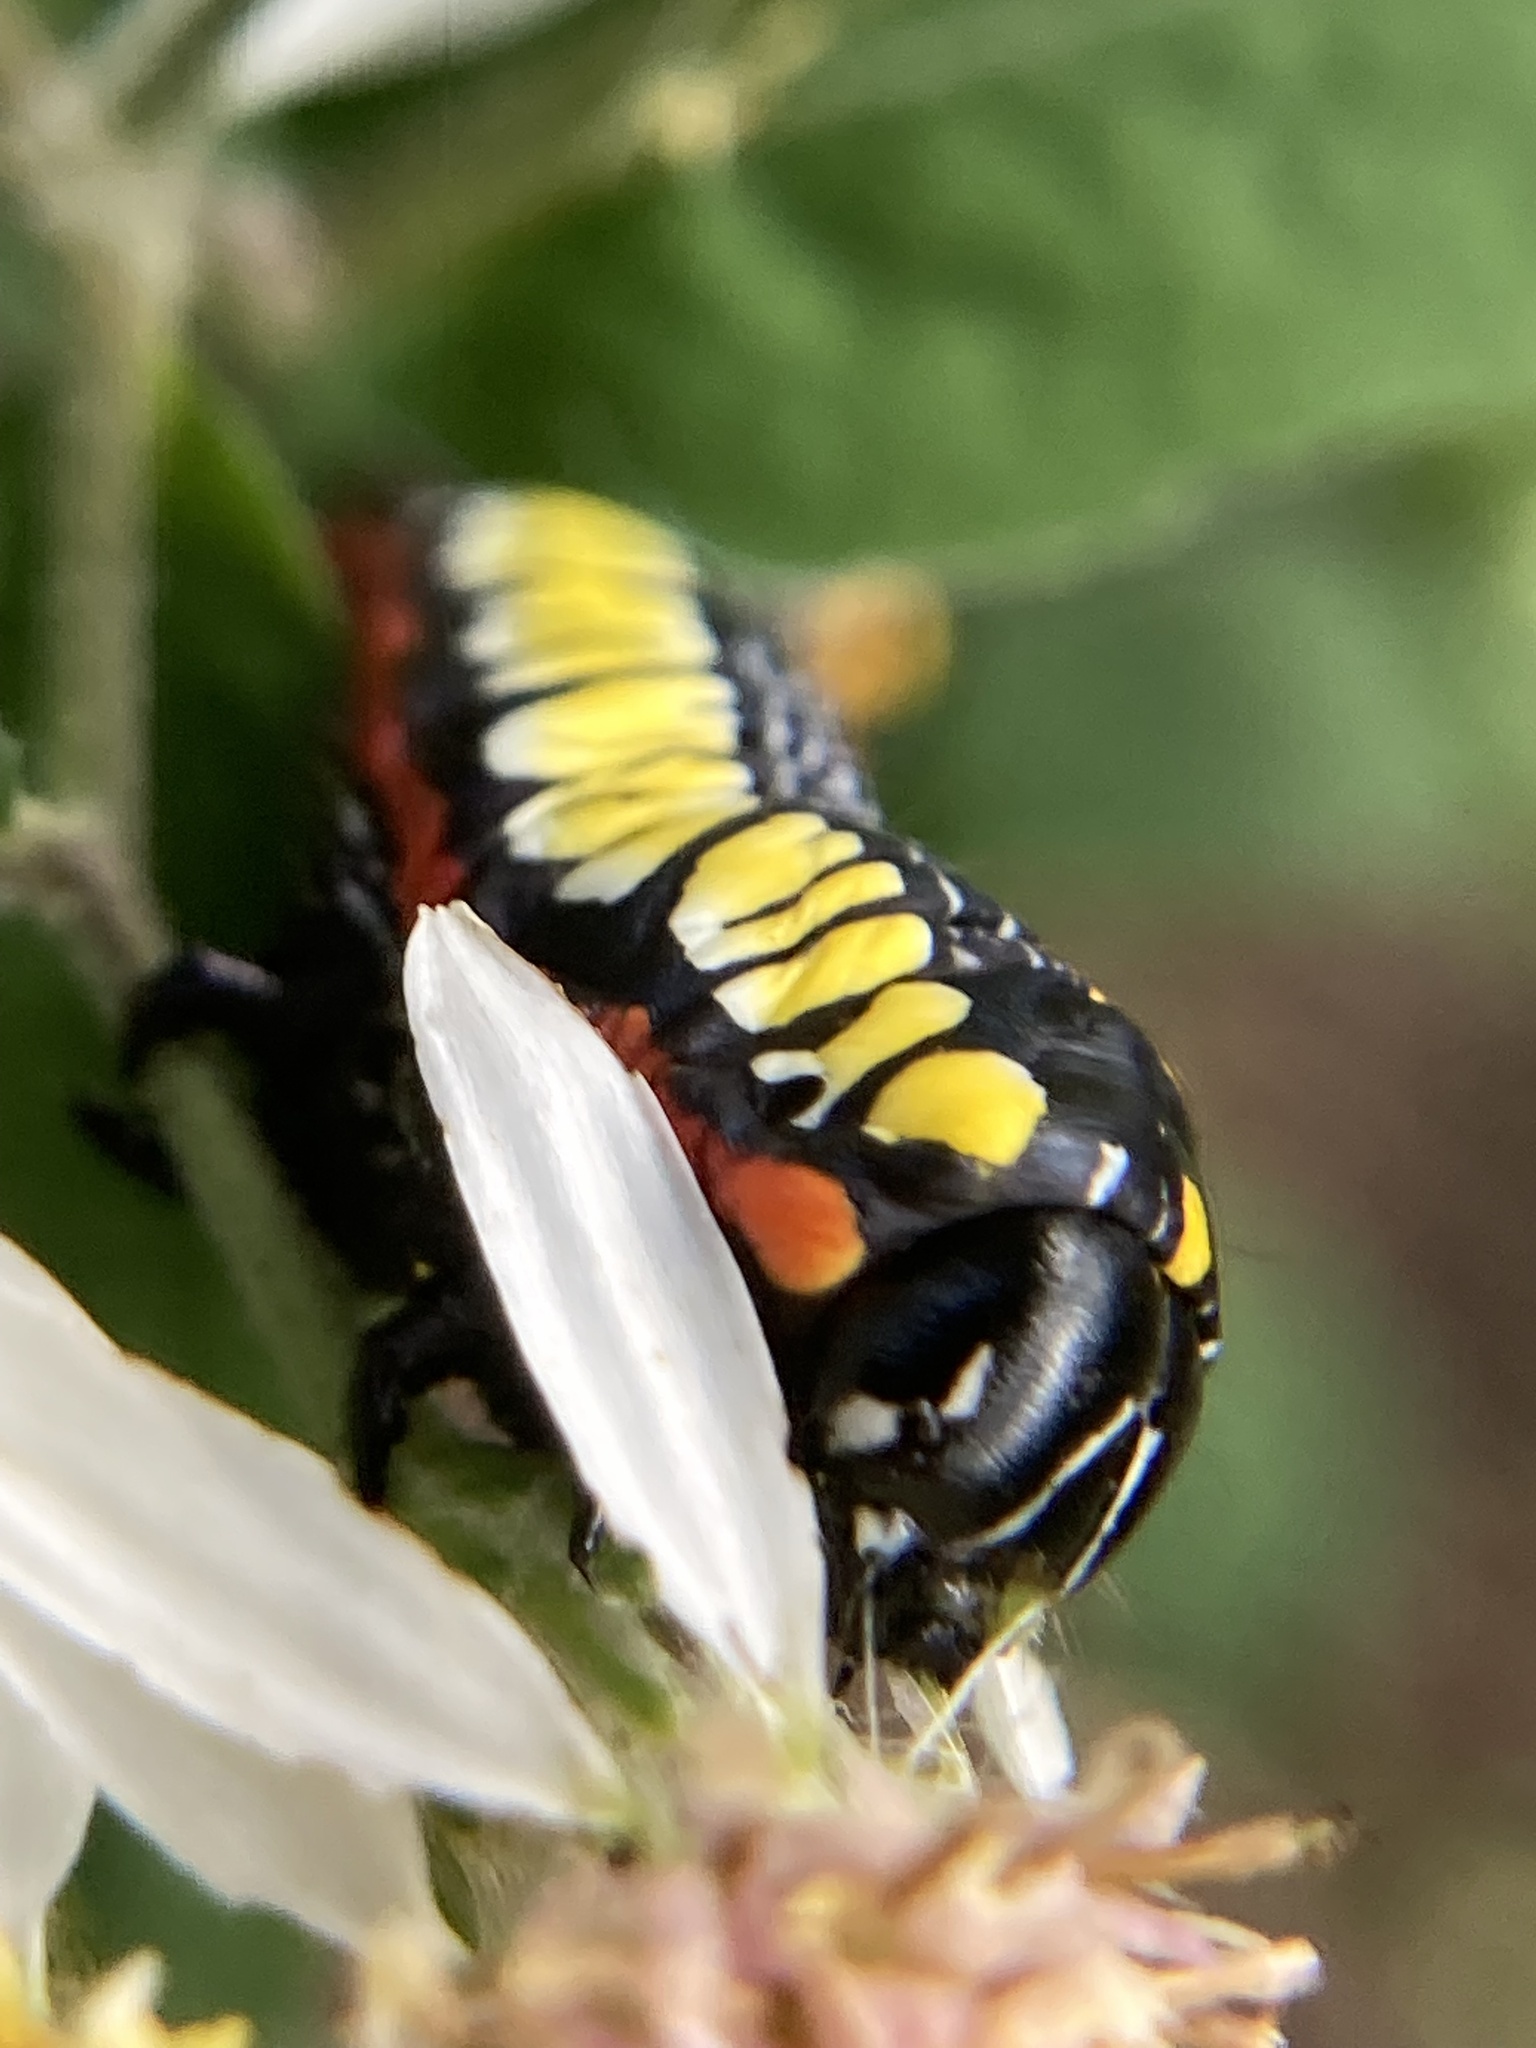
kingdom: Animalia
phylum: Arthropoda
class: Insecta
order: Lepidoptera
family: Noctuidae
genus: Cucullia
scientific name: Cucullia convexipennis
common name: Brown-hooded owlet
